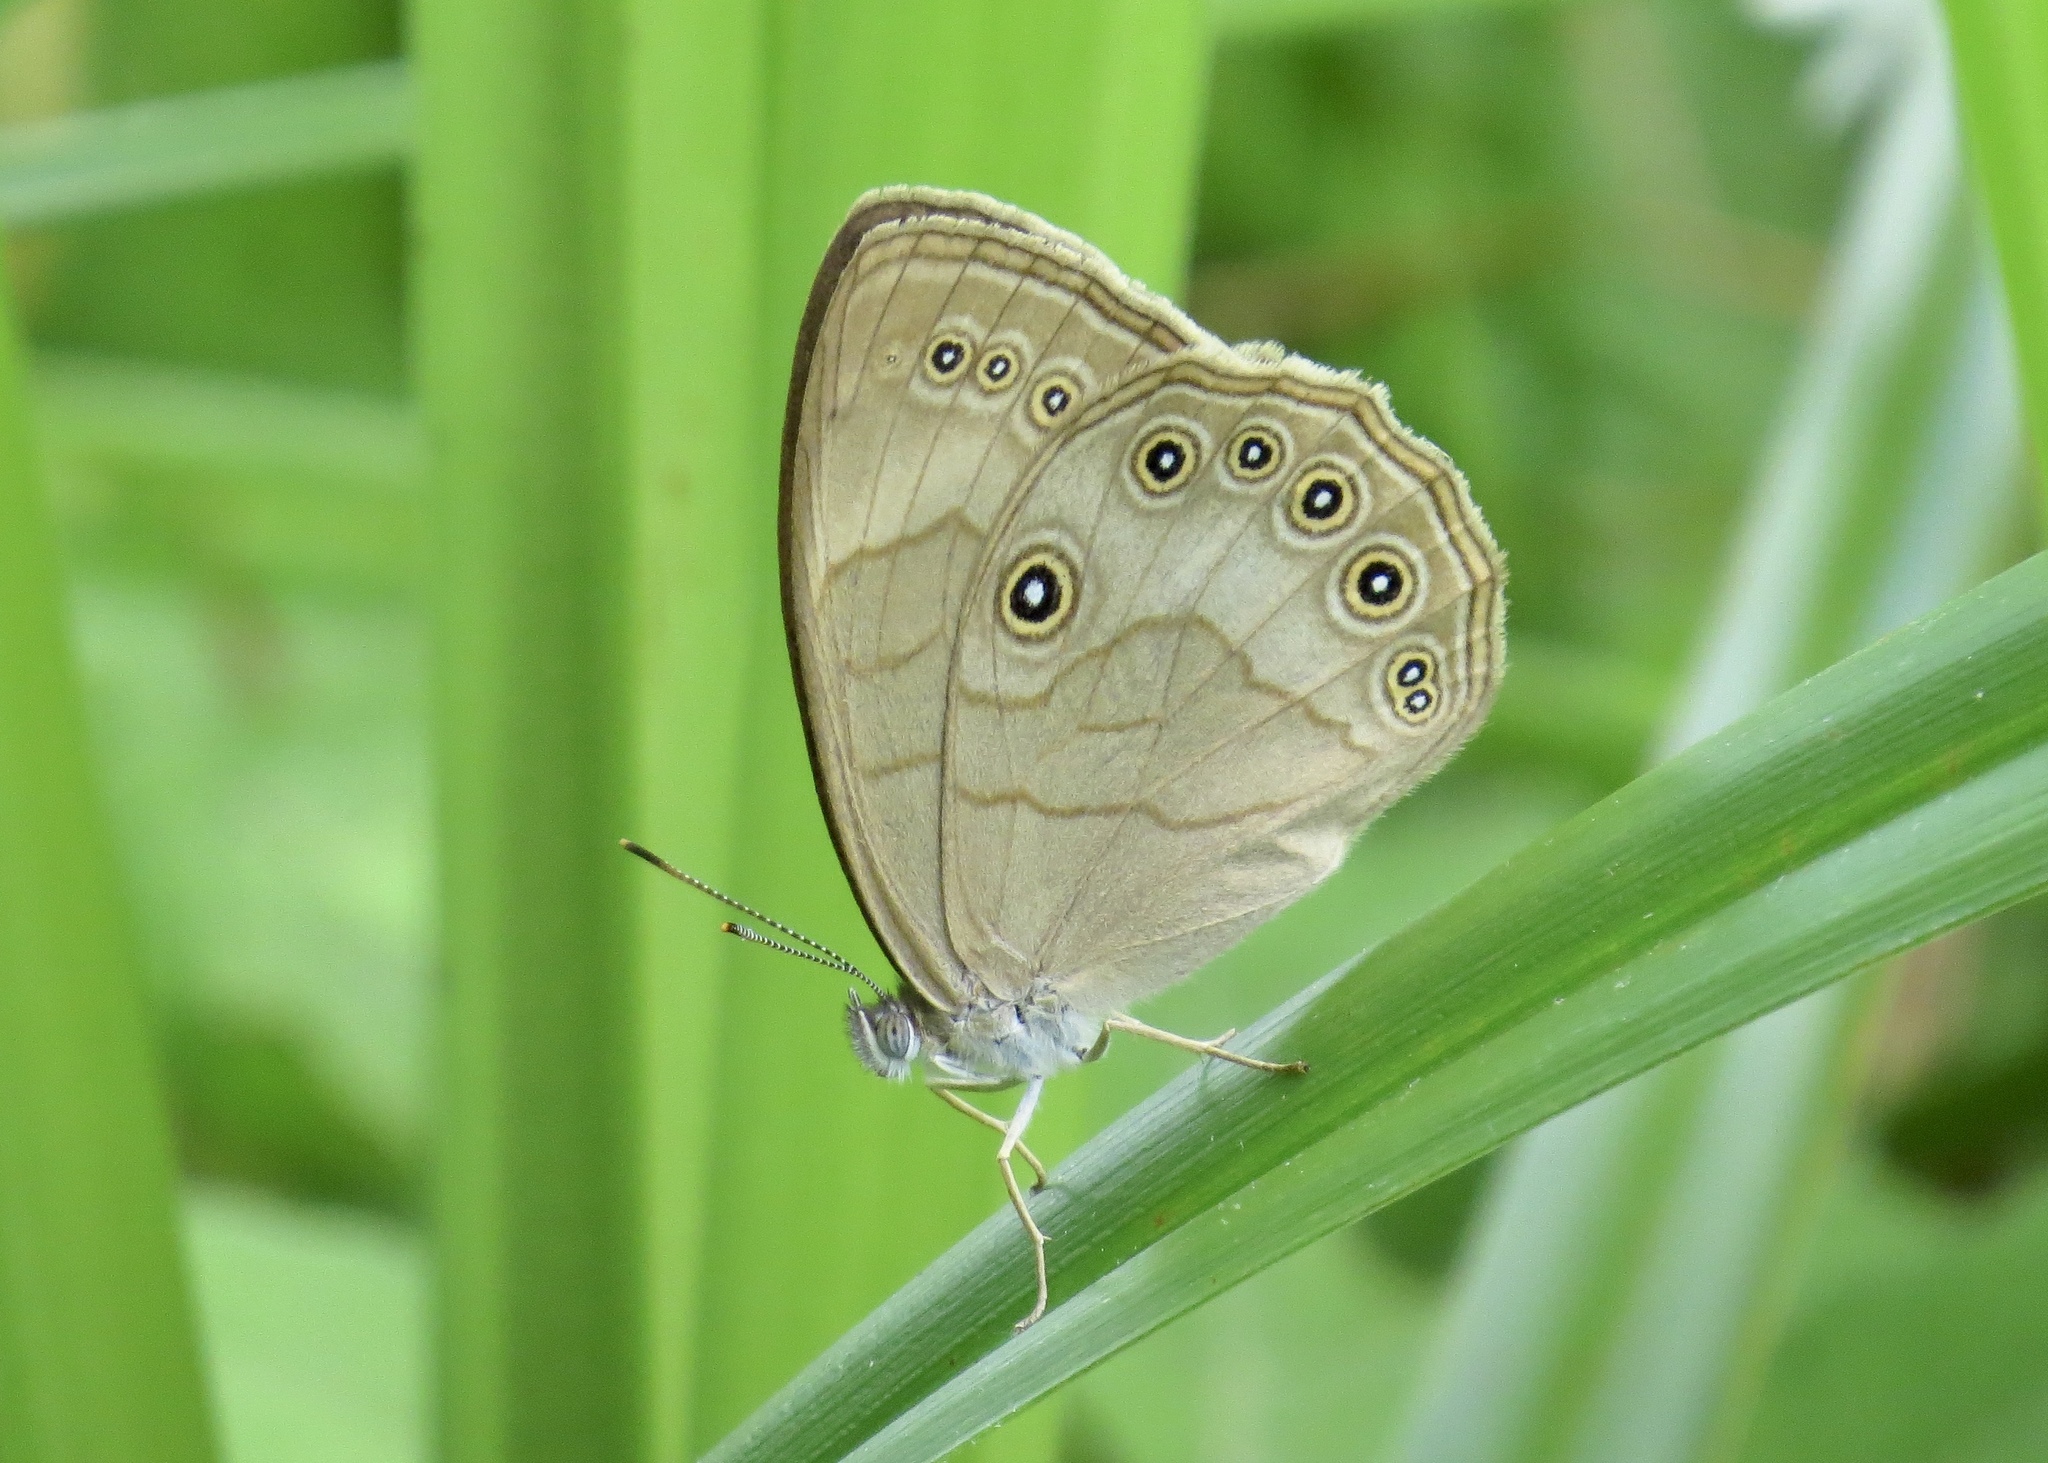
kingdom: Animalia
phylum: Arthropoda
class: Insecta
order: Lepidoptera
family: Nymphalidae
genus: Lethe
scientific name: Lethe eurydice
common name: Eyed brown
